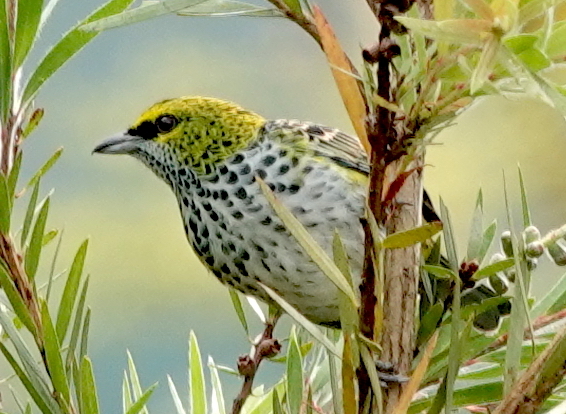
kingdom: Animalia
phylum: Chordata
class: Aves
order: Passeriformes
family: Thraupidae
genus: Ixothraupis
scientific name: Ixothraupis guttata
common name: Speckled tanager
